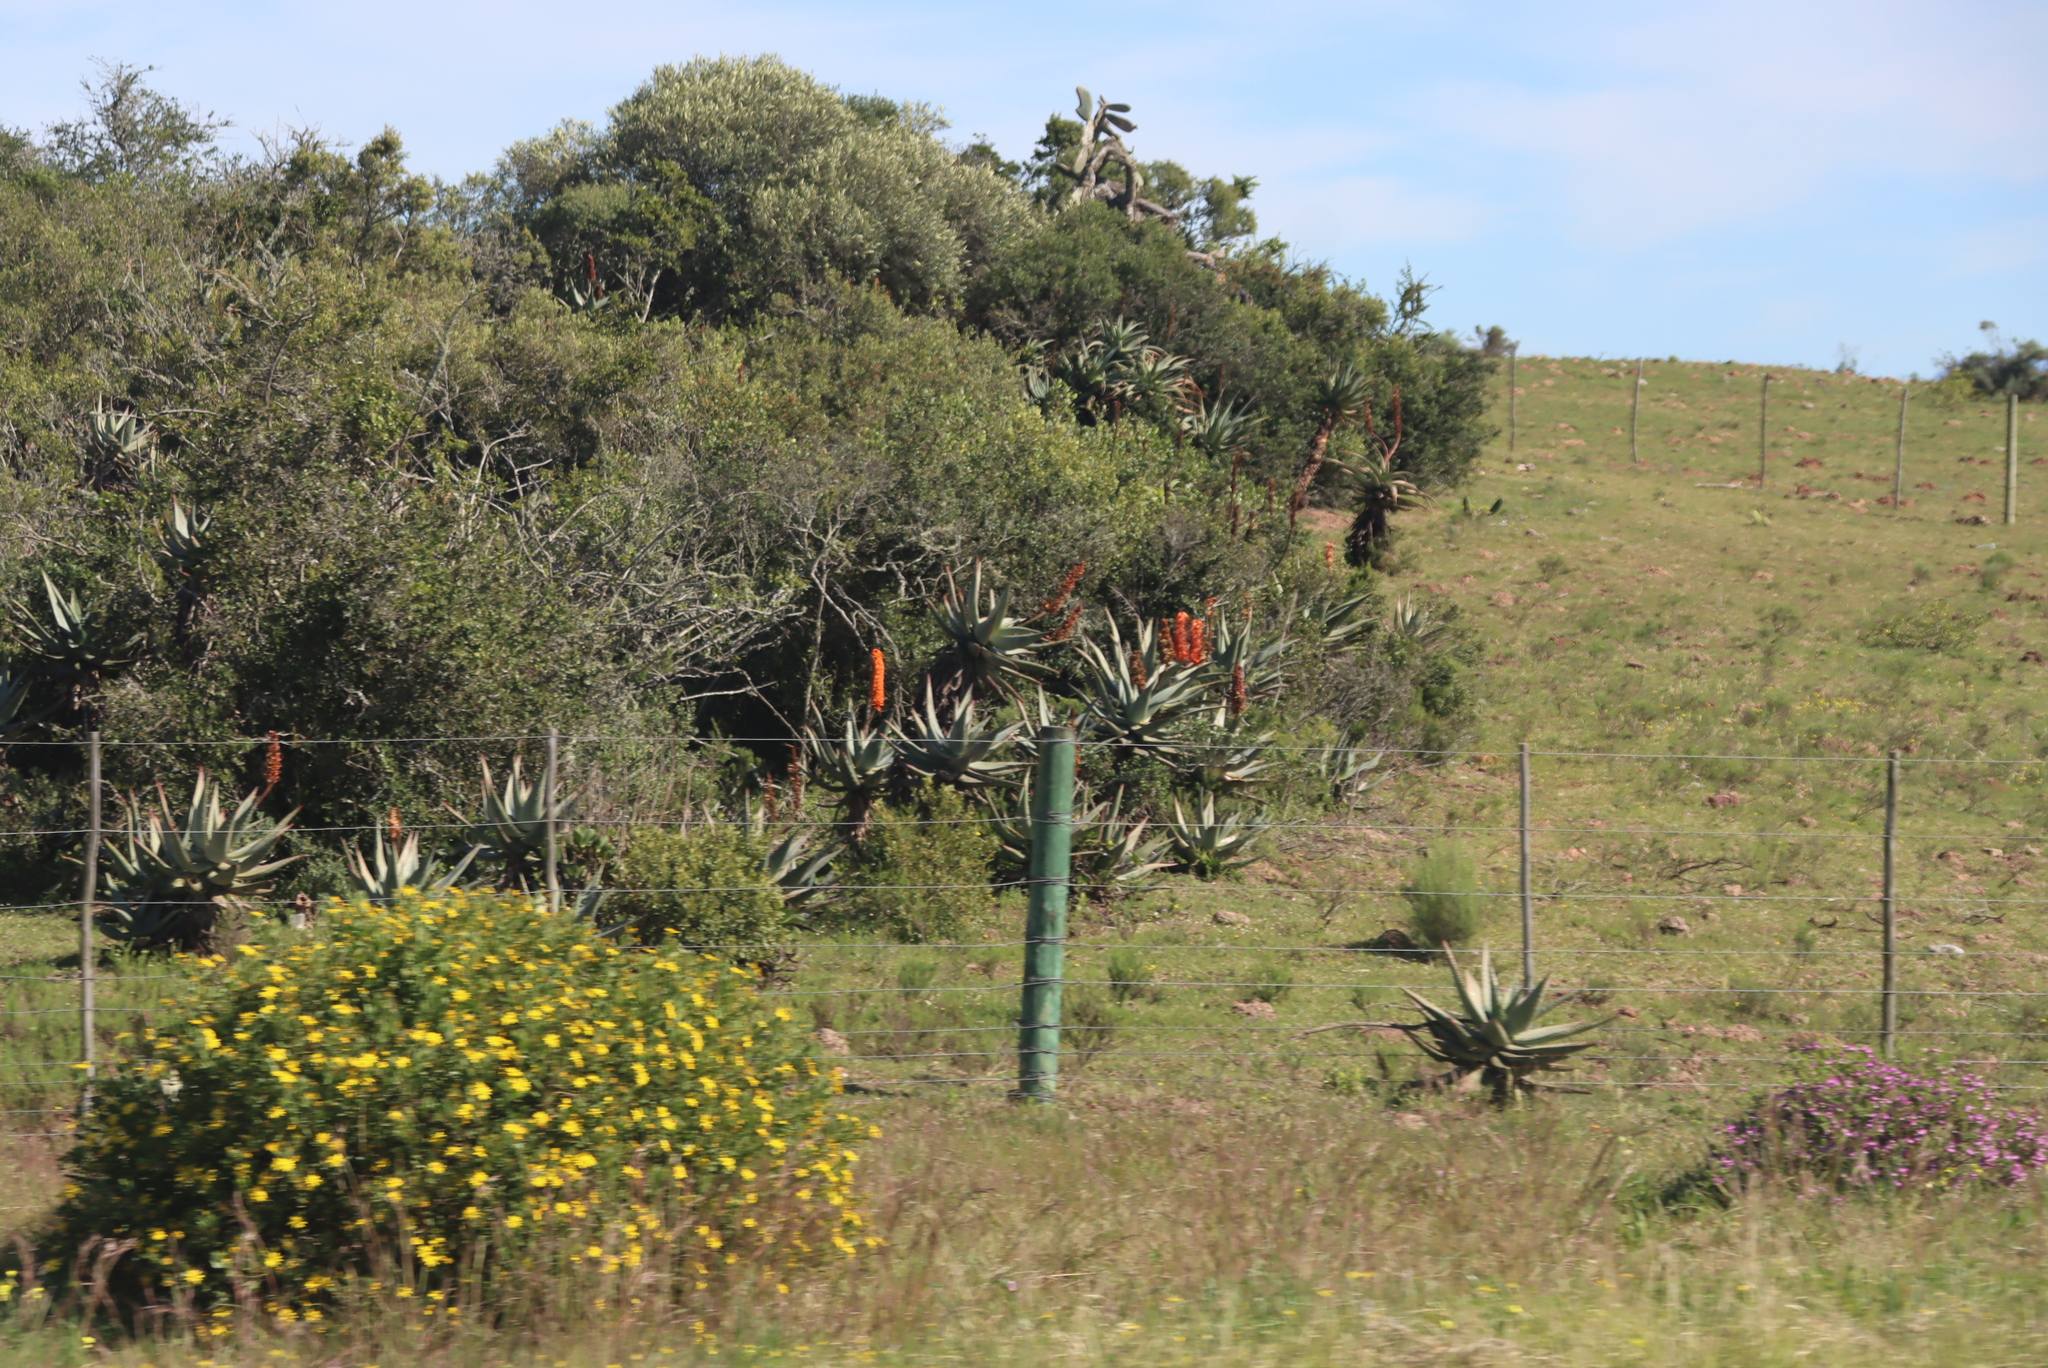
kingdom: Plantae
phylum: Tracheophyta
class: Magnoliopsida
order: Asterales
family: Asteraceae
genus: Osteospermum
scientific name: Osteospermum moniliferum
